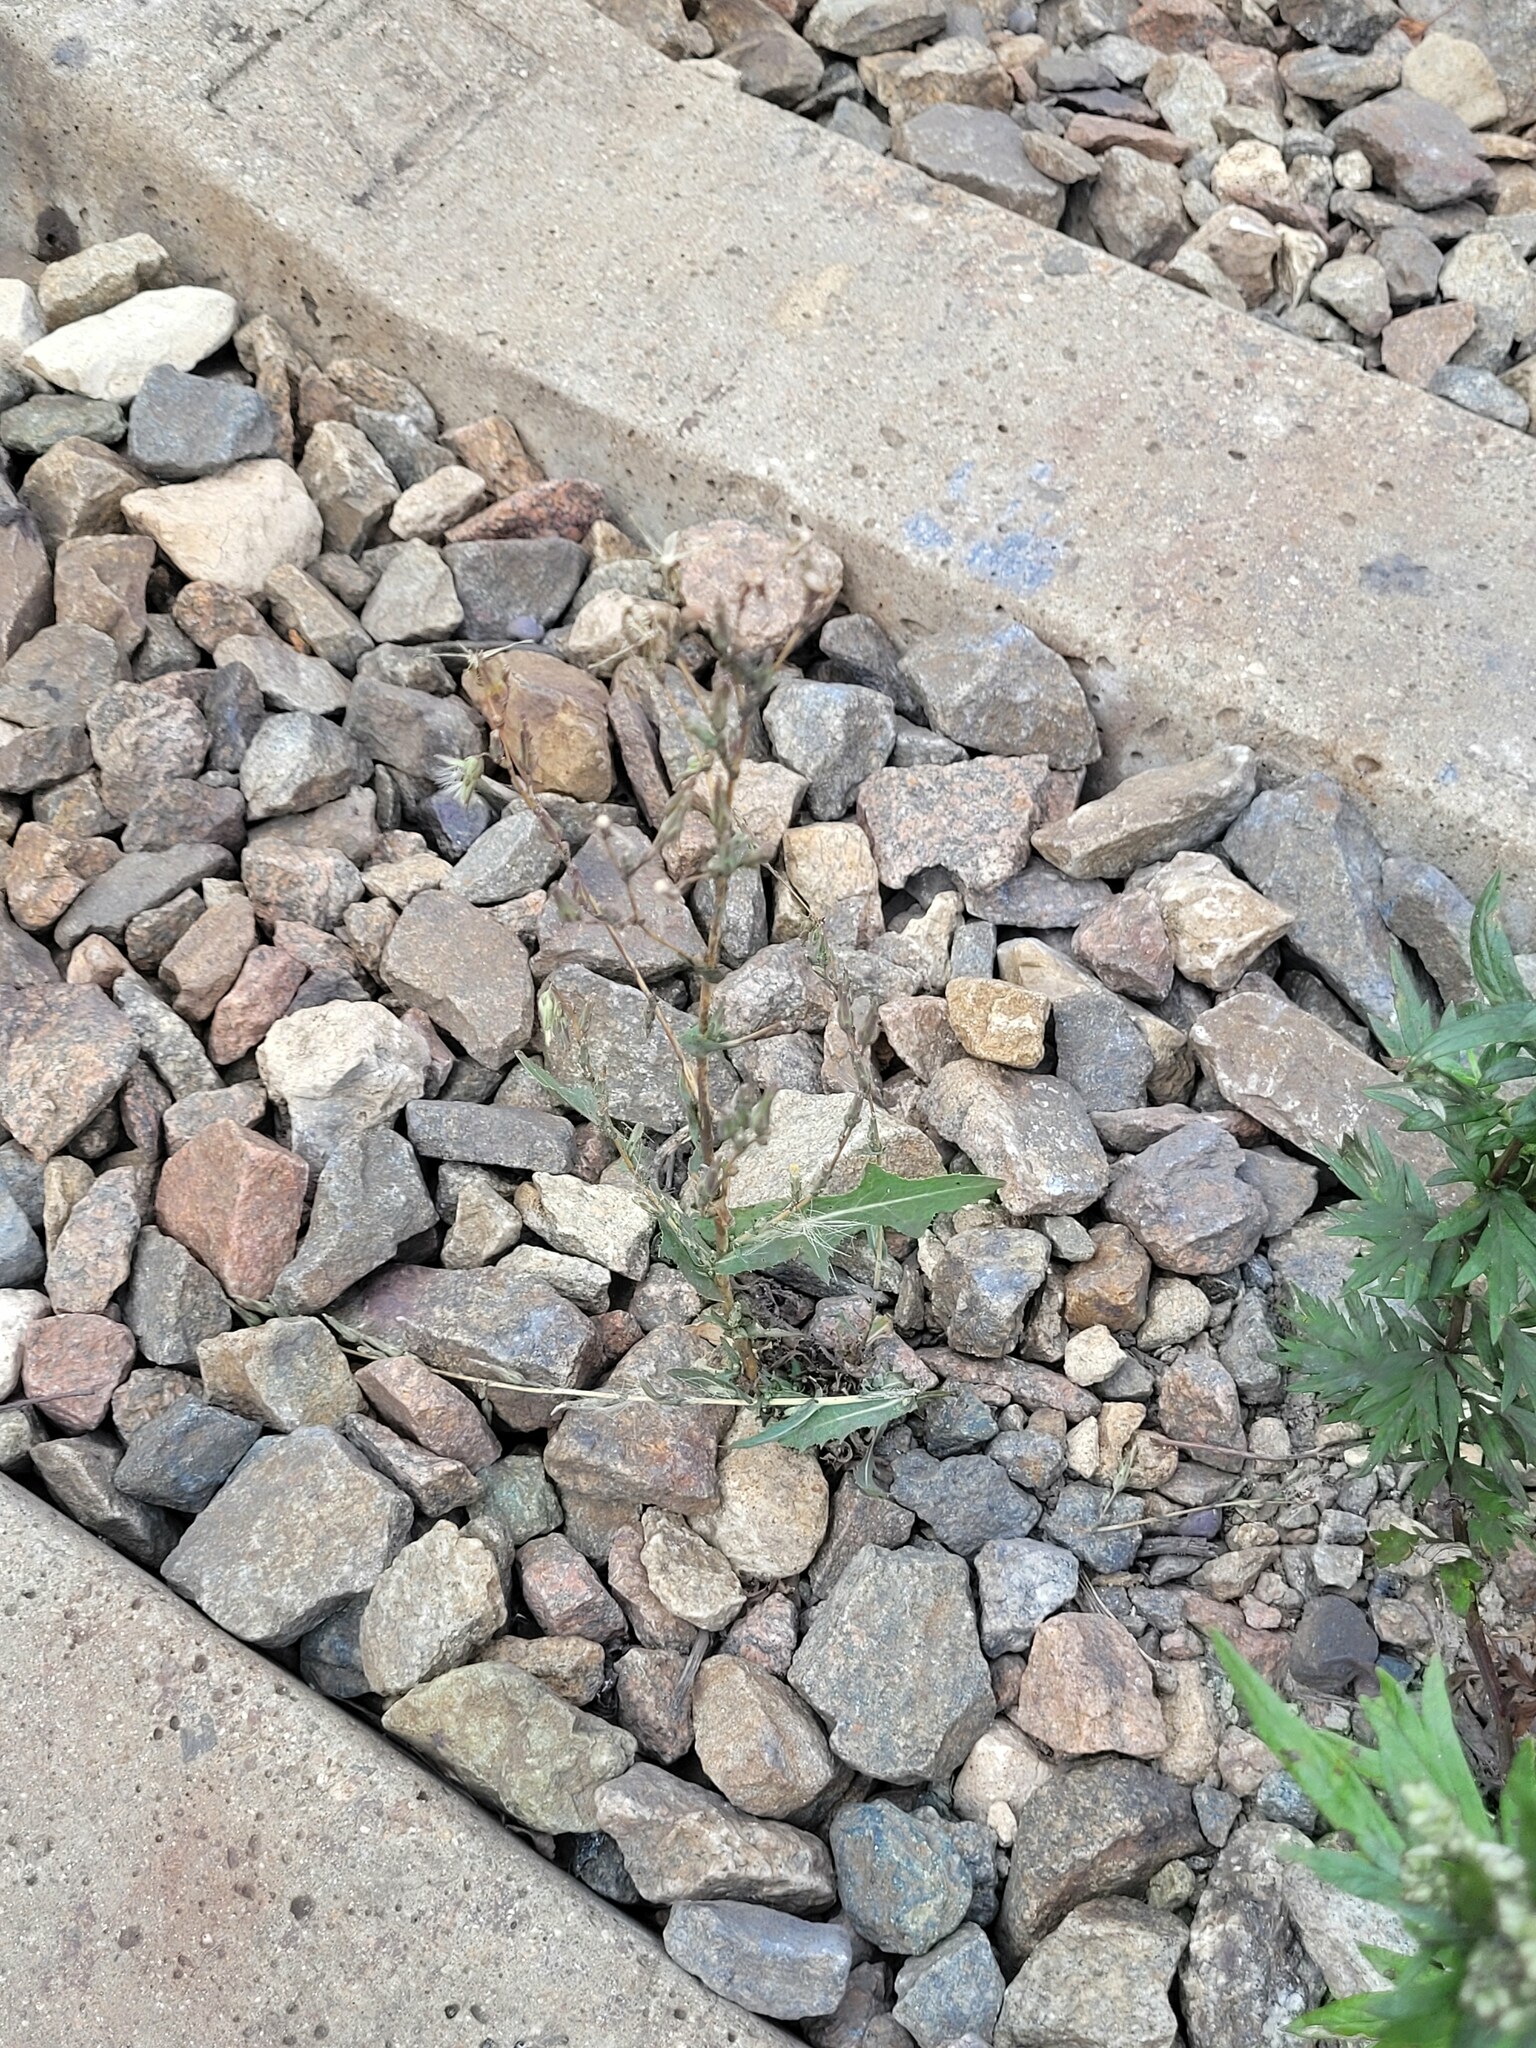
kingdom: Plantae
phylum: Tracheophyta
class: Magnoliopsida
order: Asterales
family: Asteraceae
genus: Lactuca
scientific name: Lactuca serriola
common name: Prickly lettuce
